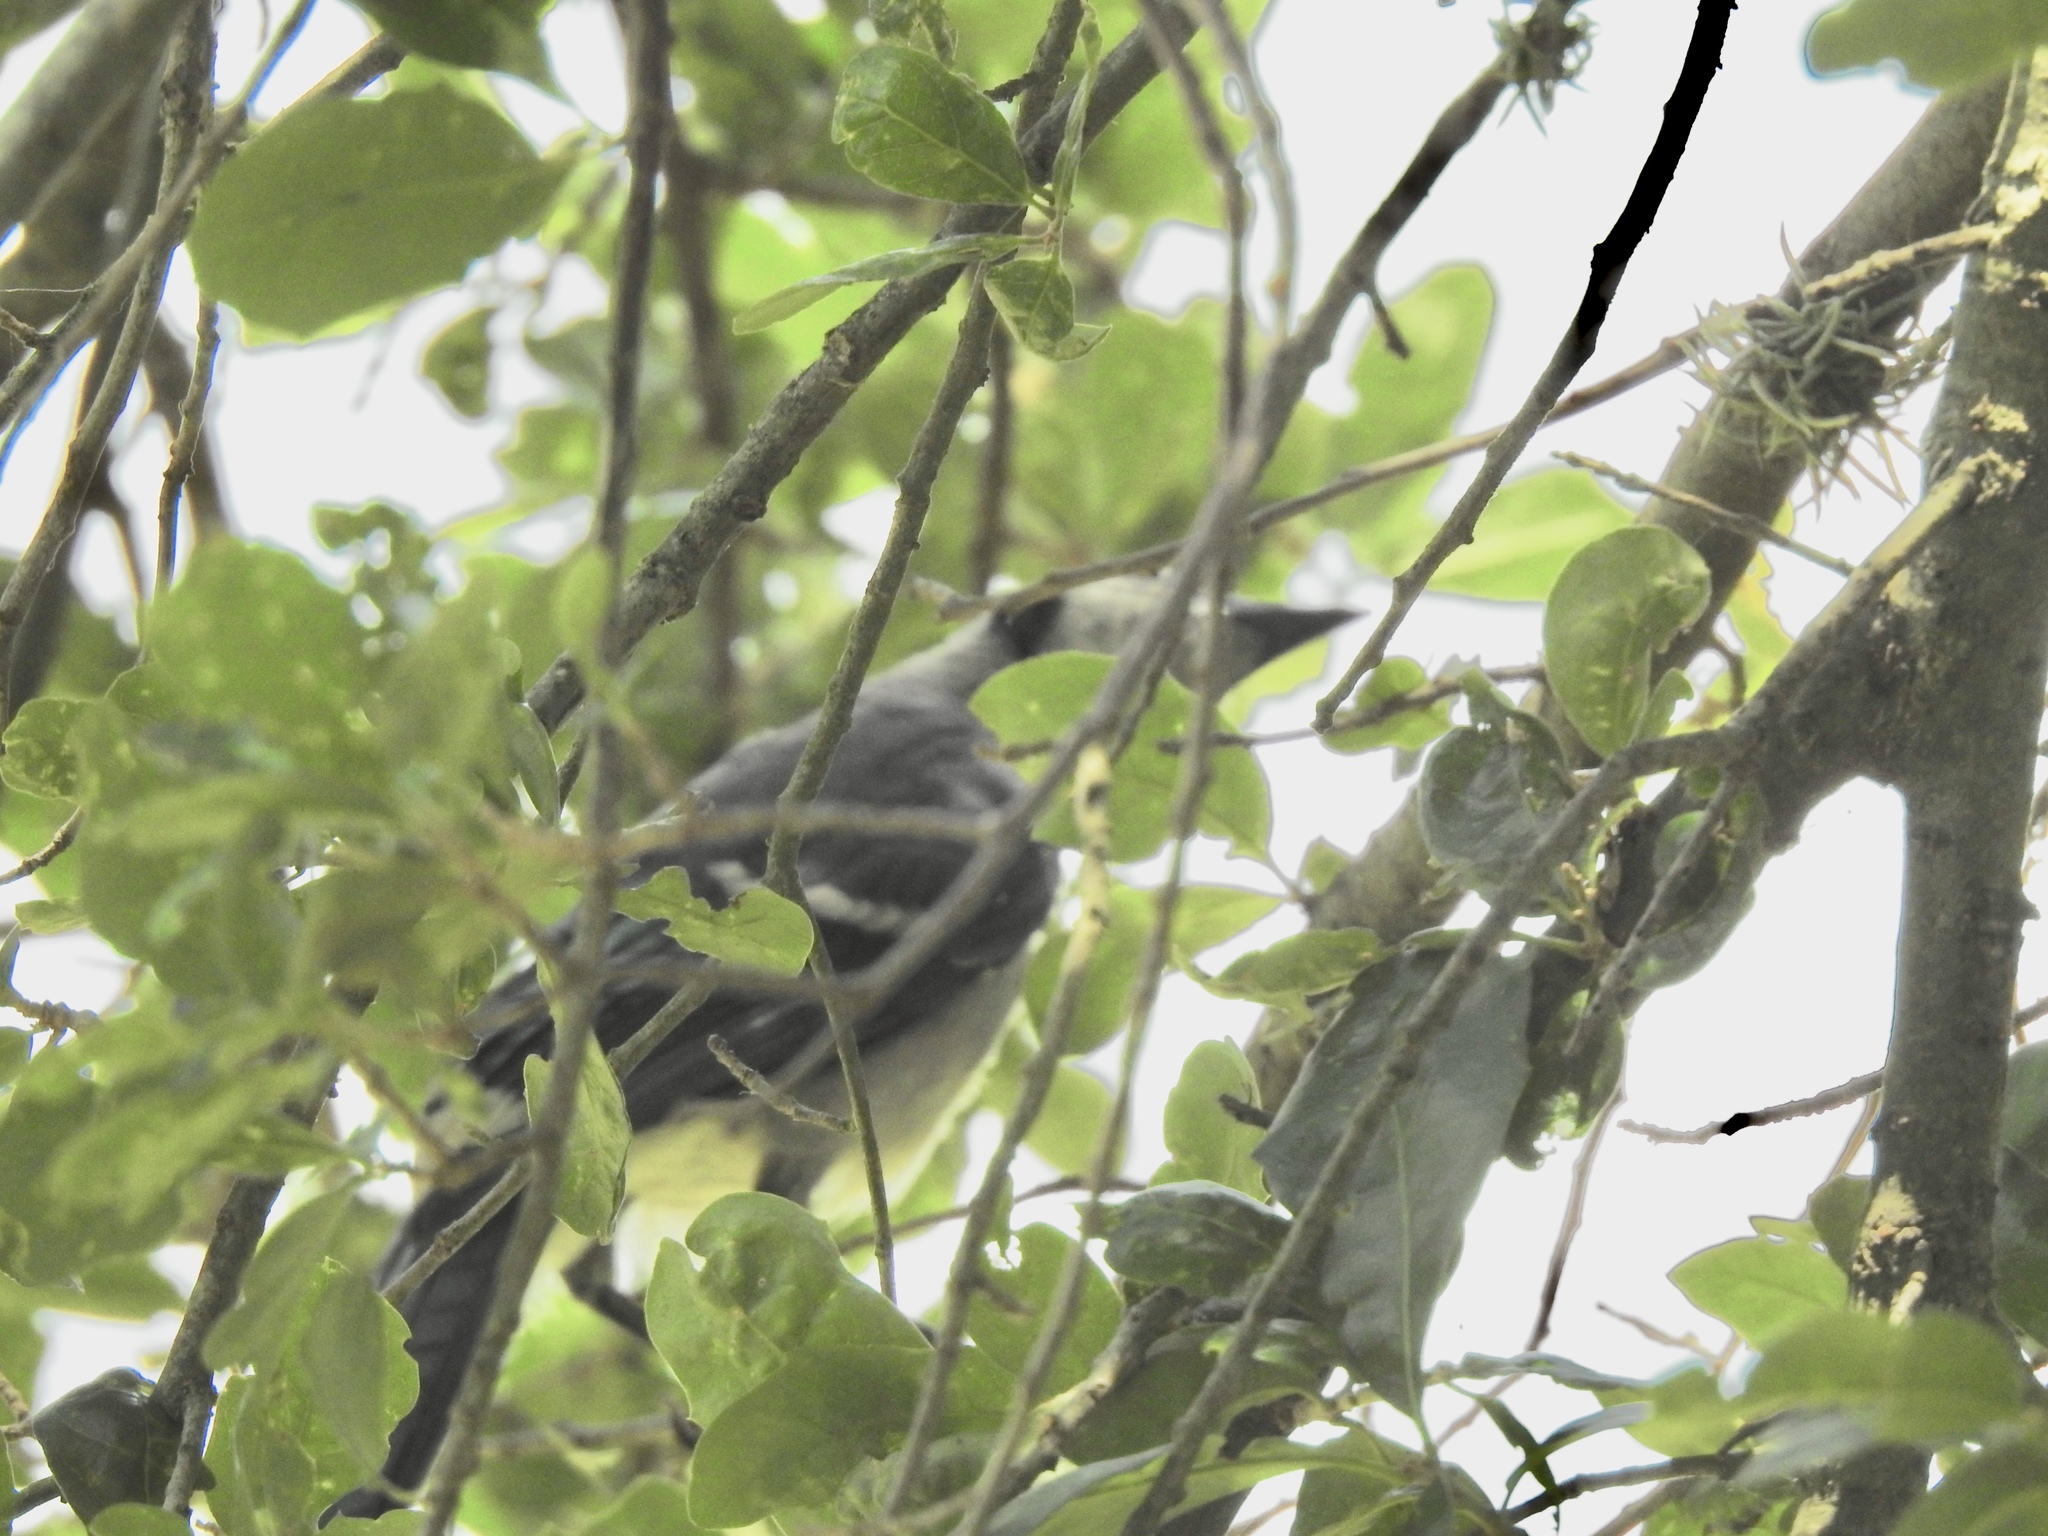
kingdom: Animalia
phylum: Chordata
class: Aves
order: Passeriformes
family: Corvidae
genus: Cyanocitta
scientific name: Cyanocitta cristata
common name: Blue jay
